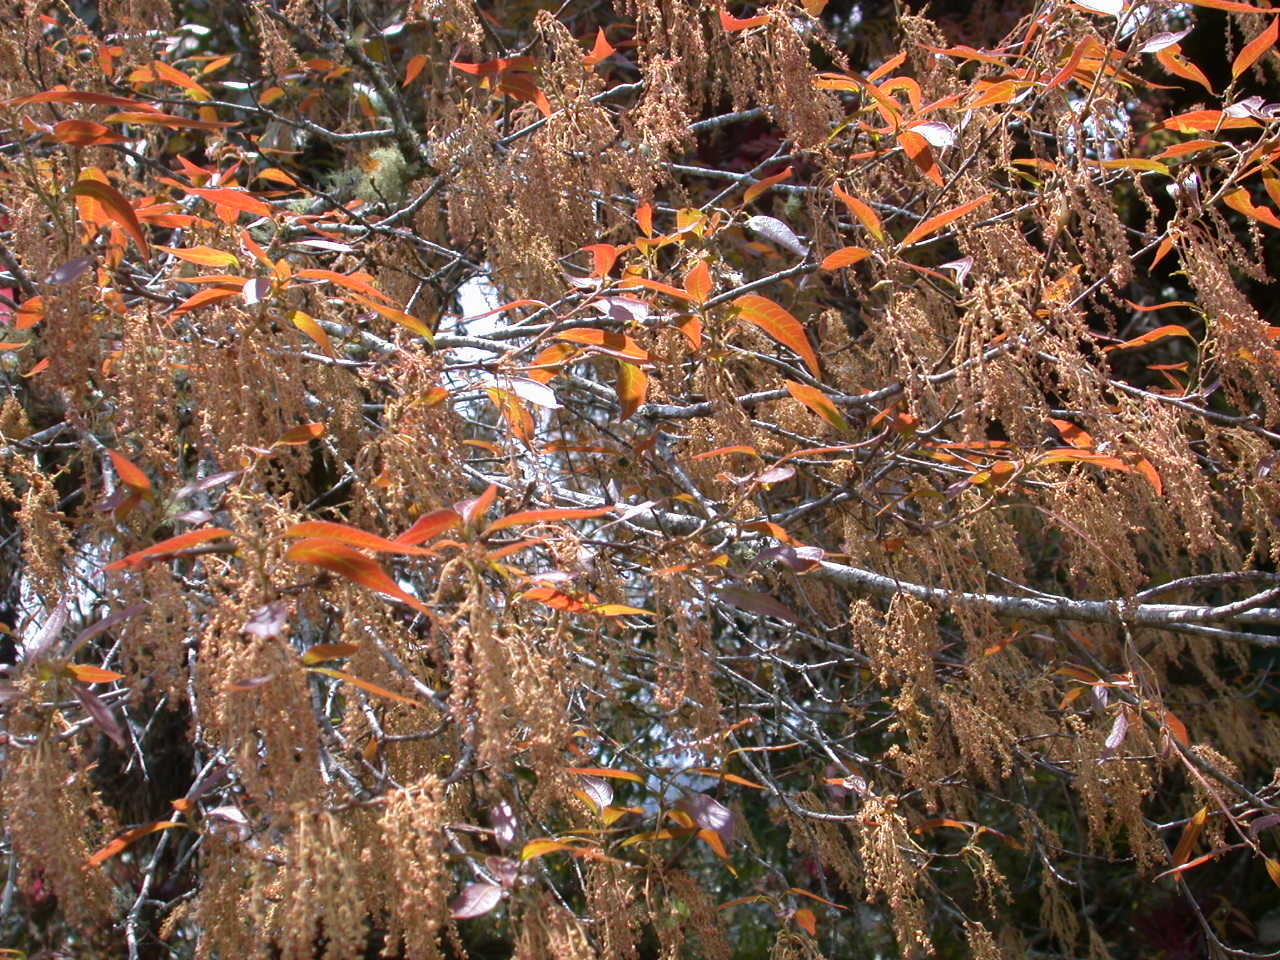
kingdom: Plantae
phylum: Tracheophyta
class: Magnoliopsida
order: Fagales
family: Fagaceae
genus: Quercus
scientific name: Quercus laurina
